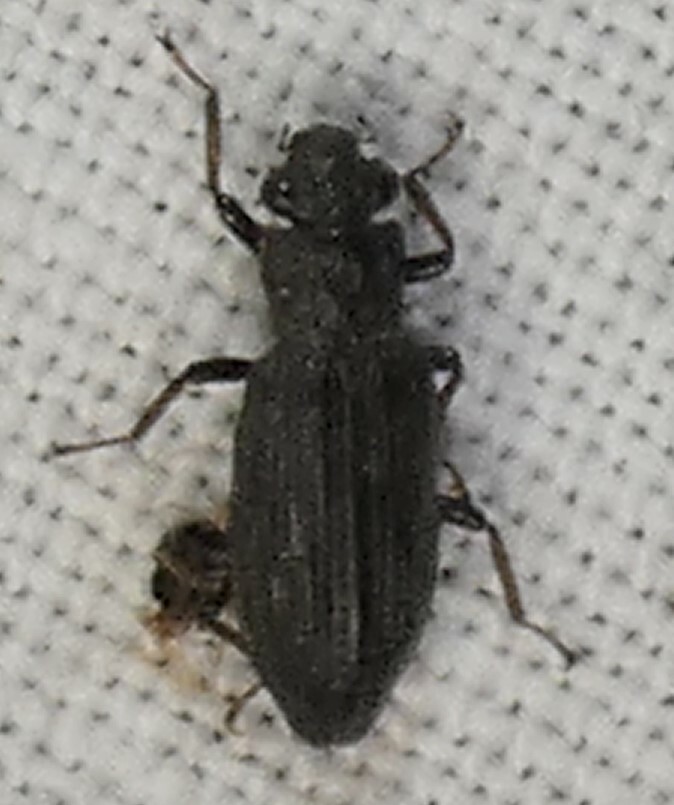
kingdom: Animalia
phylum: Arthropoda
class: Insecta
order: Coleoptera
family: Hydrochidae
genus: Hydrochus
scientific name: Hydrochus
